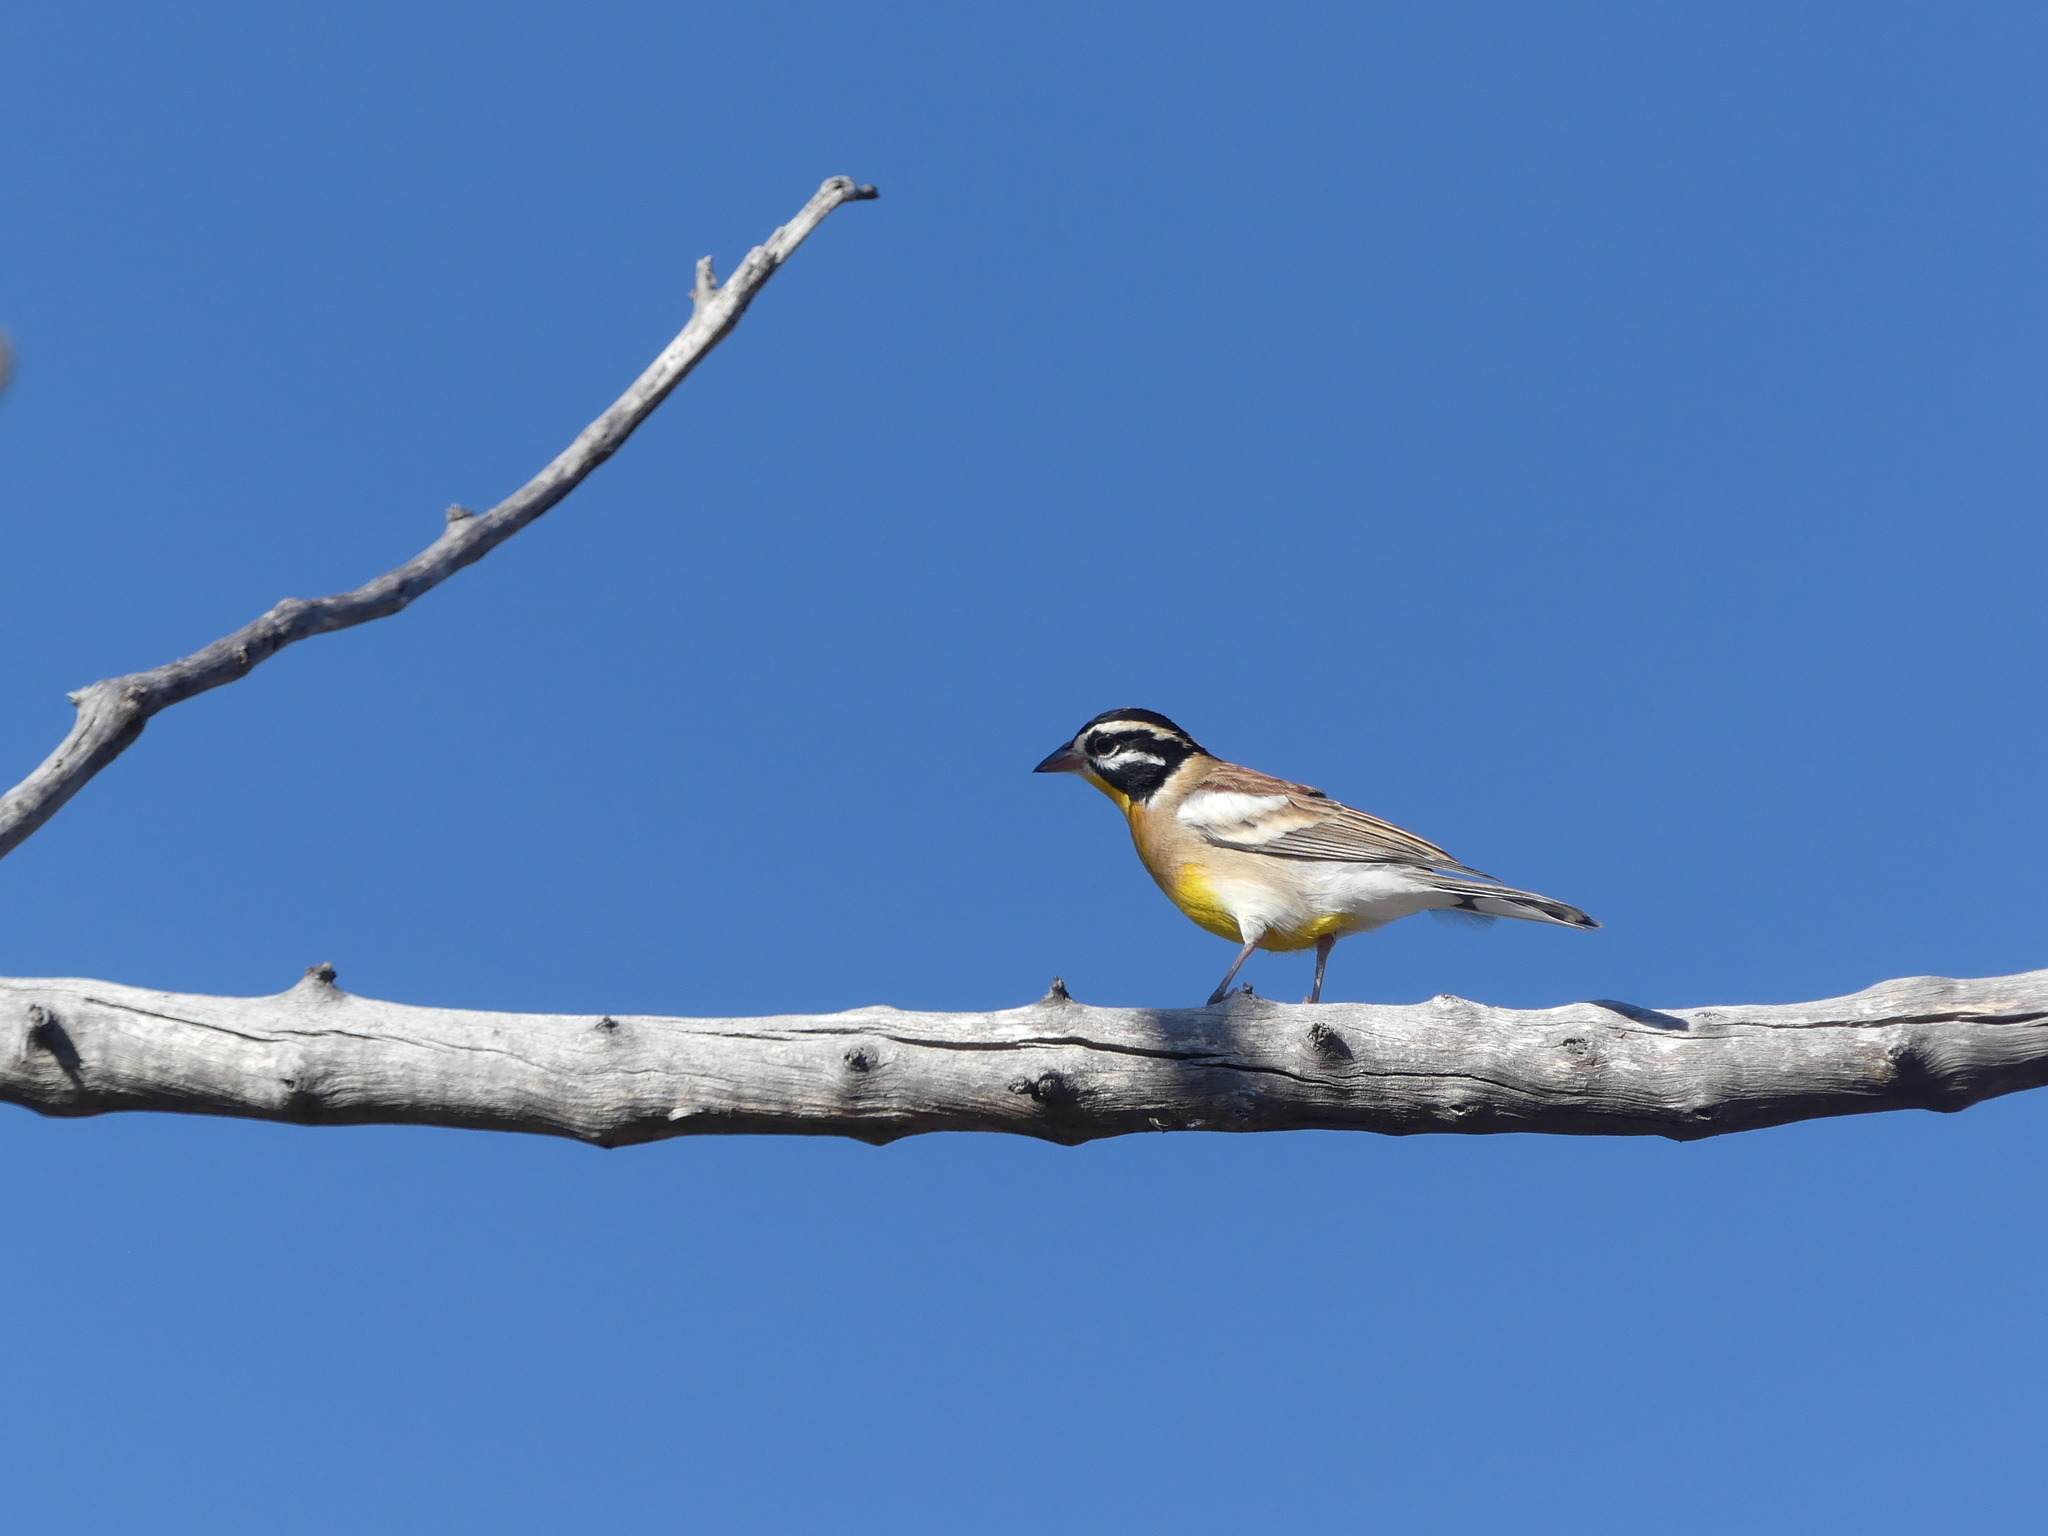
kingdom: Animalia
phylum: Chordata
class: Aves
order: Passeriformes
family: Emberizidae
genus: Emberiza
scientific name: Emberiza flaviventris
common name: Golden-breasted bunting
